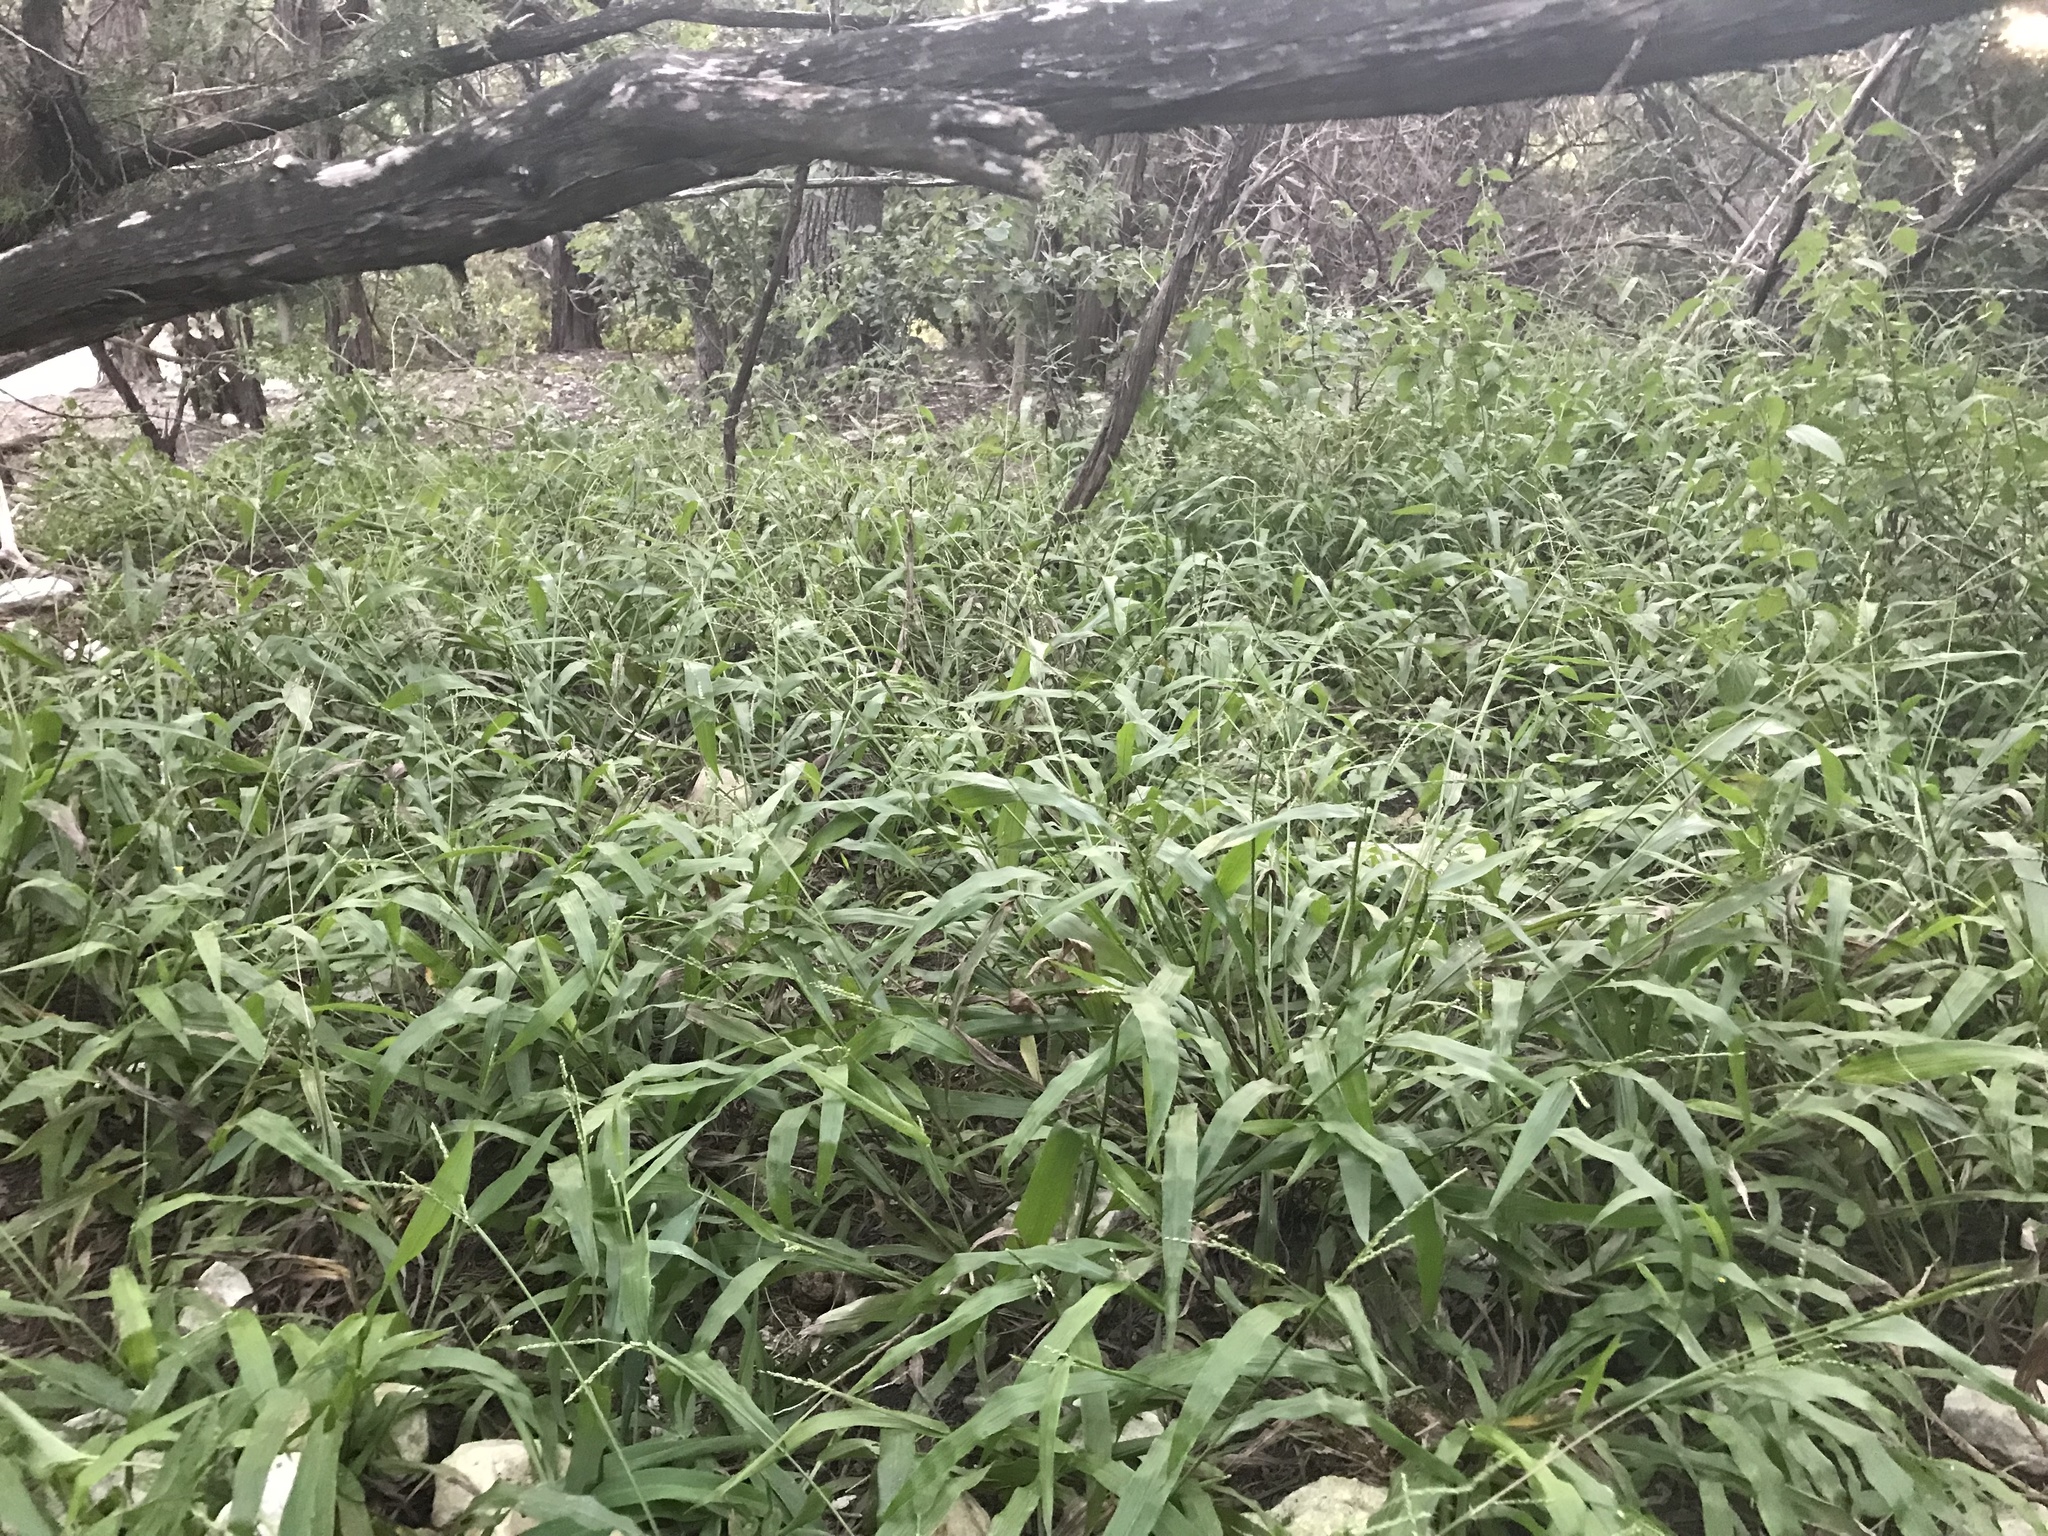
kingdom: Plantae
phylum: Tracheophyta
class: Liliopsida
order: Poales
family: Poaceae
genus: Paspalum
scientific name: Paspalum langei
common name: Rusty-seed paspalum
